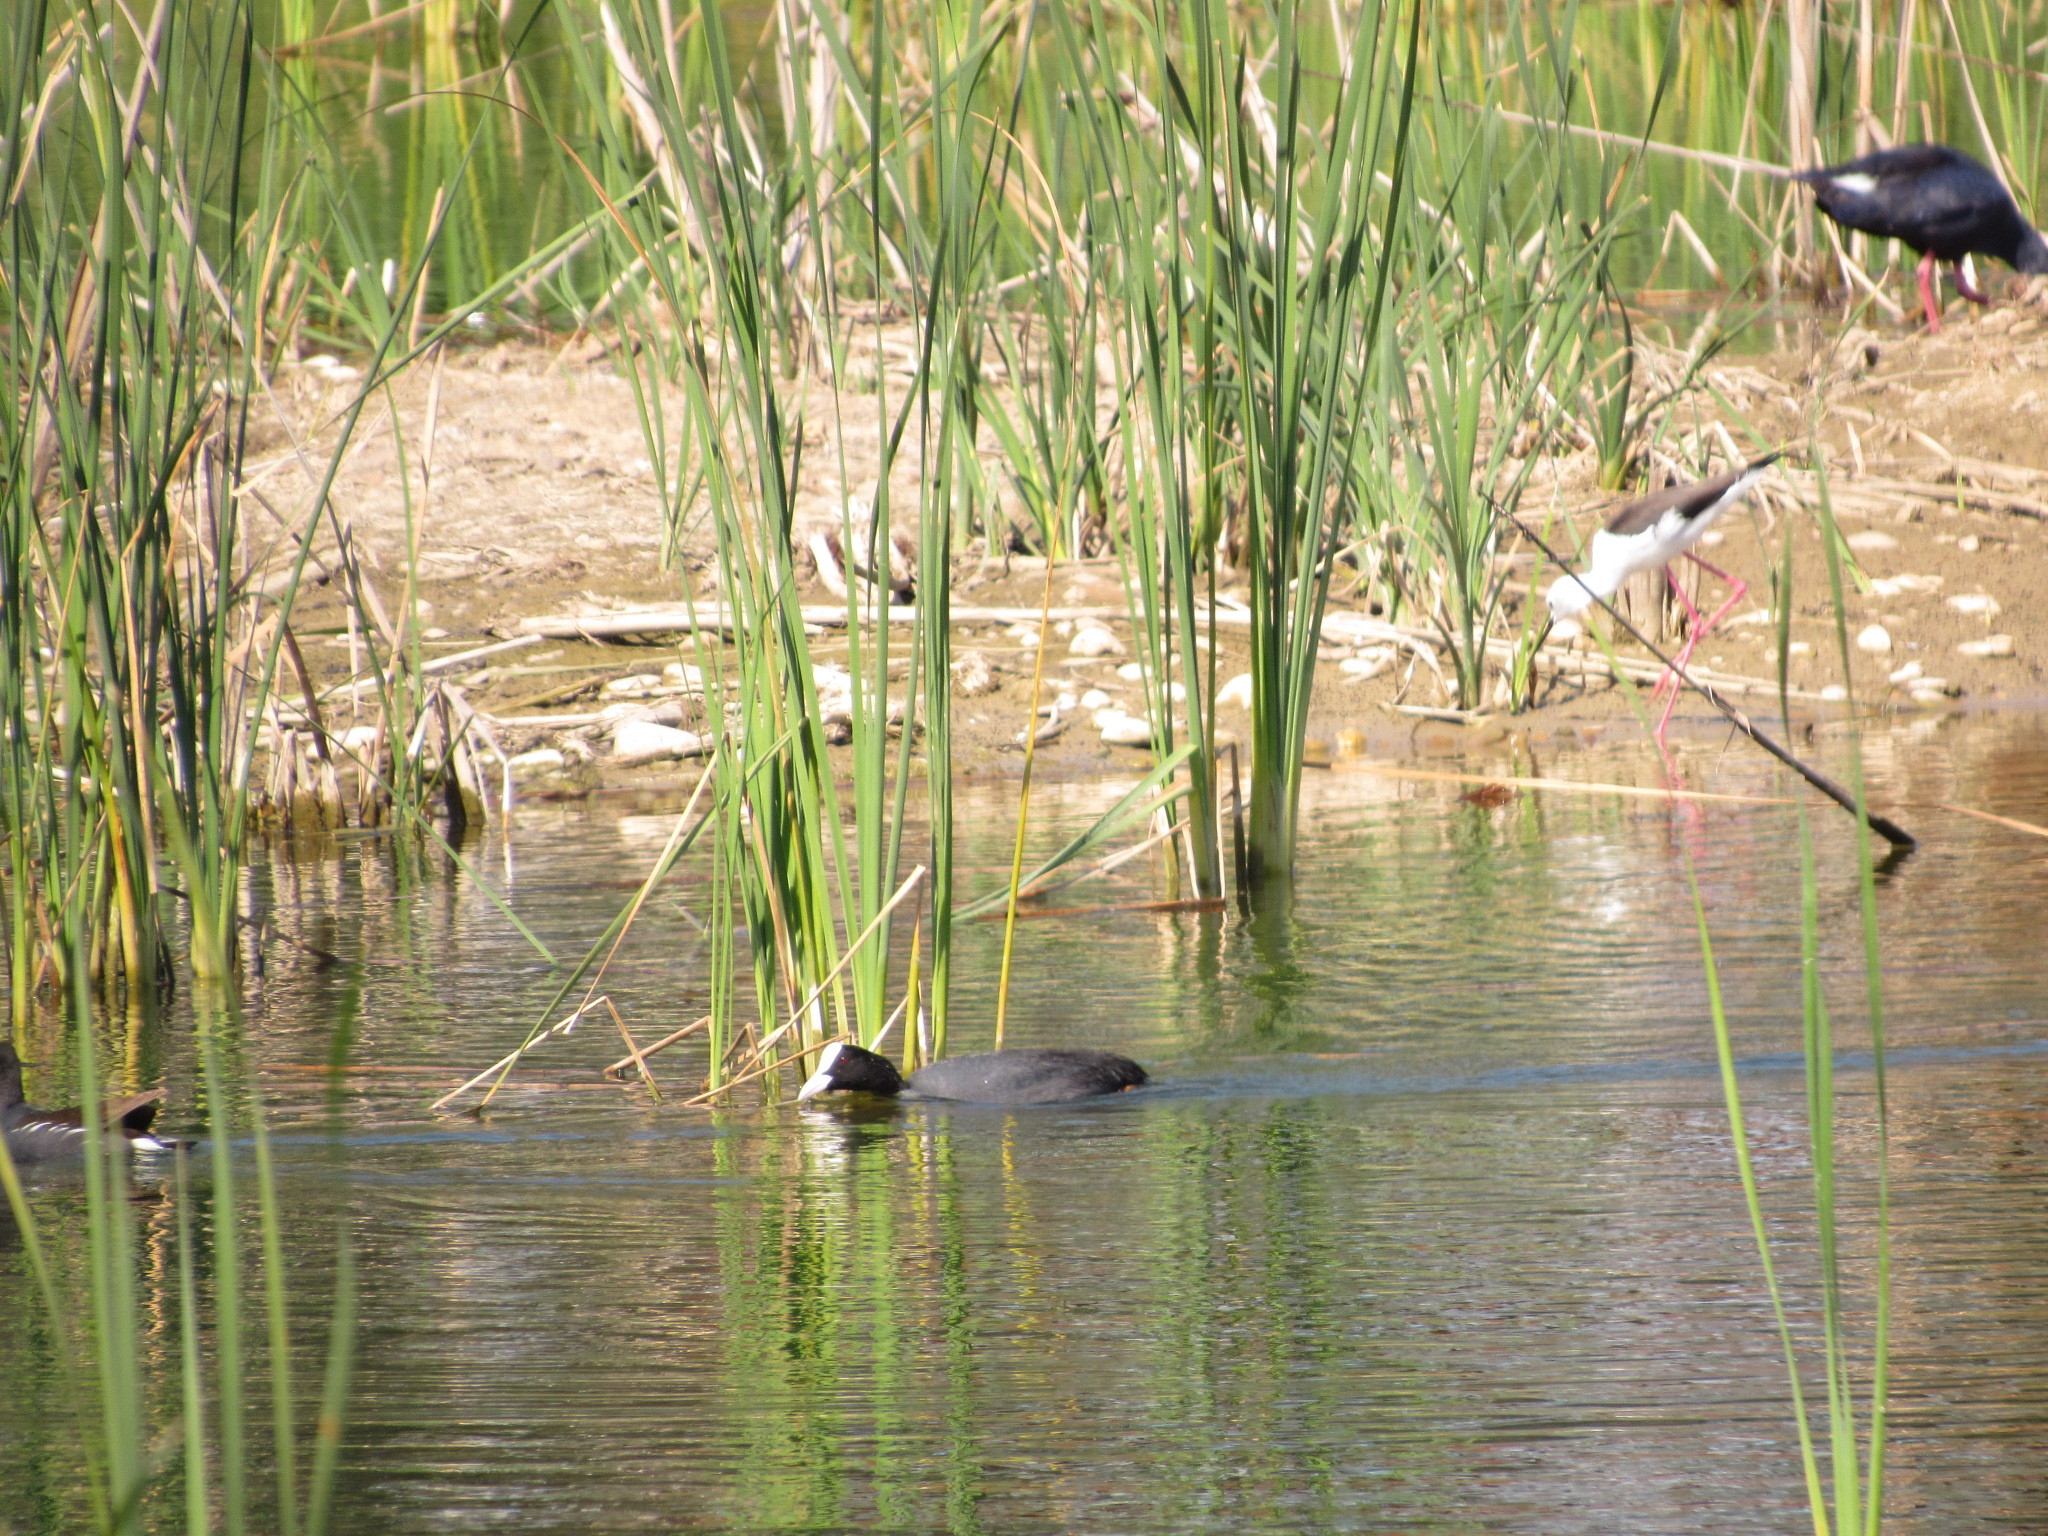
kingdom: Animalia
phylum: Chordata
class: Aves
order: Gruiformes
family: Rallidae
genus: Fulica
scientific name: Fulica atra
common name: Eurasian coot
